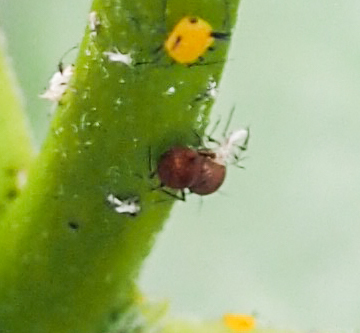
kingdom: Animalia
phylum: Arthropoda
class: Insecta
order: Hemiptera
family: Aphididae
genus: Aphis
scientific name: Aphis nerii
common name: Oleander aphid
